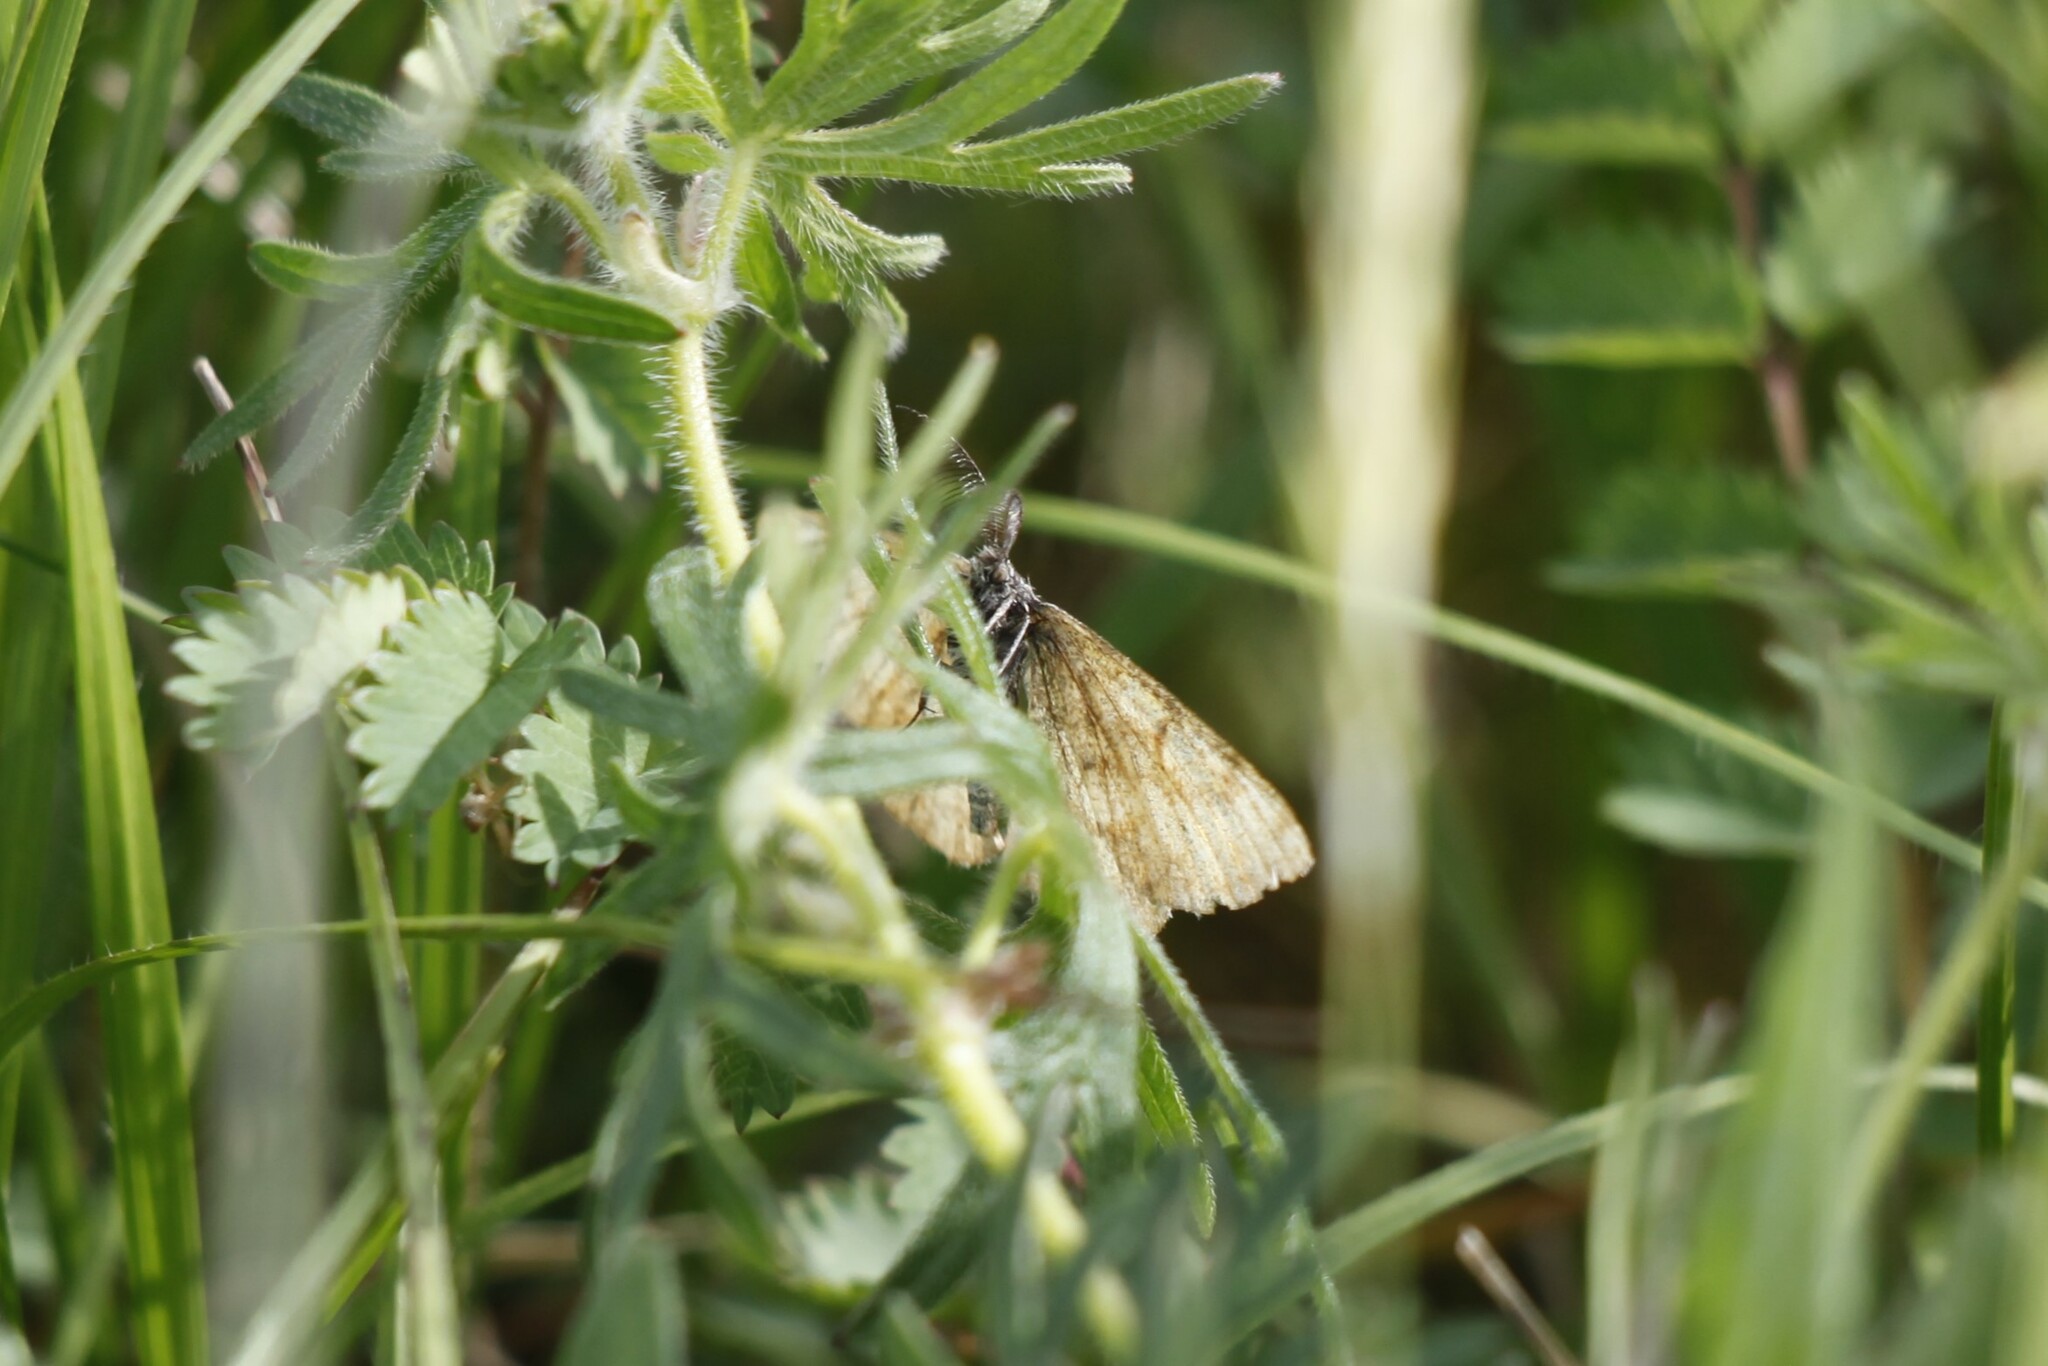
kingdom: Animalia
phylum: Arthropoda
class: Insecta
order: Lepidoptera
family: Geometridae
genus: Ematurga
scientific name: Ematurga atomaria
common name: Common heath
